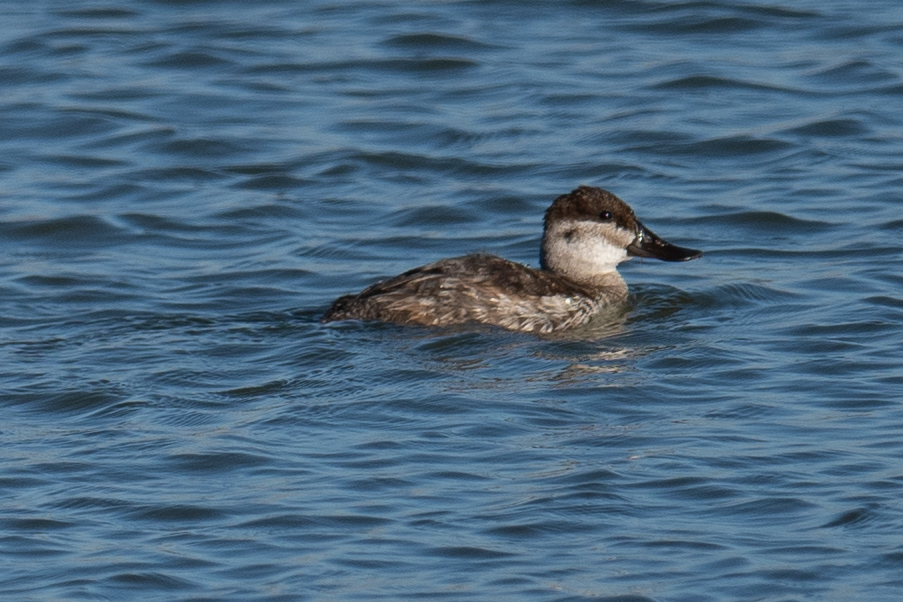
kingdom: Animalia
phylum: Chordata
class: Aves
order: Anseriformes
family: Anatidae
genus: Oxyura
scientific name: Oxyura jamaicensis
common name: Ruddy duck
